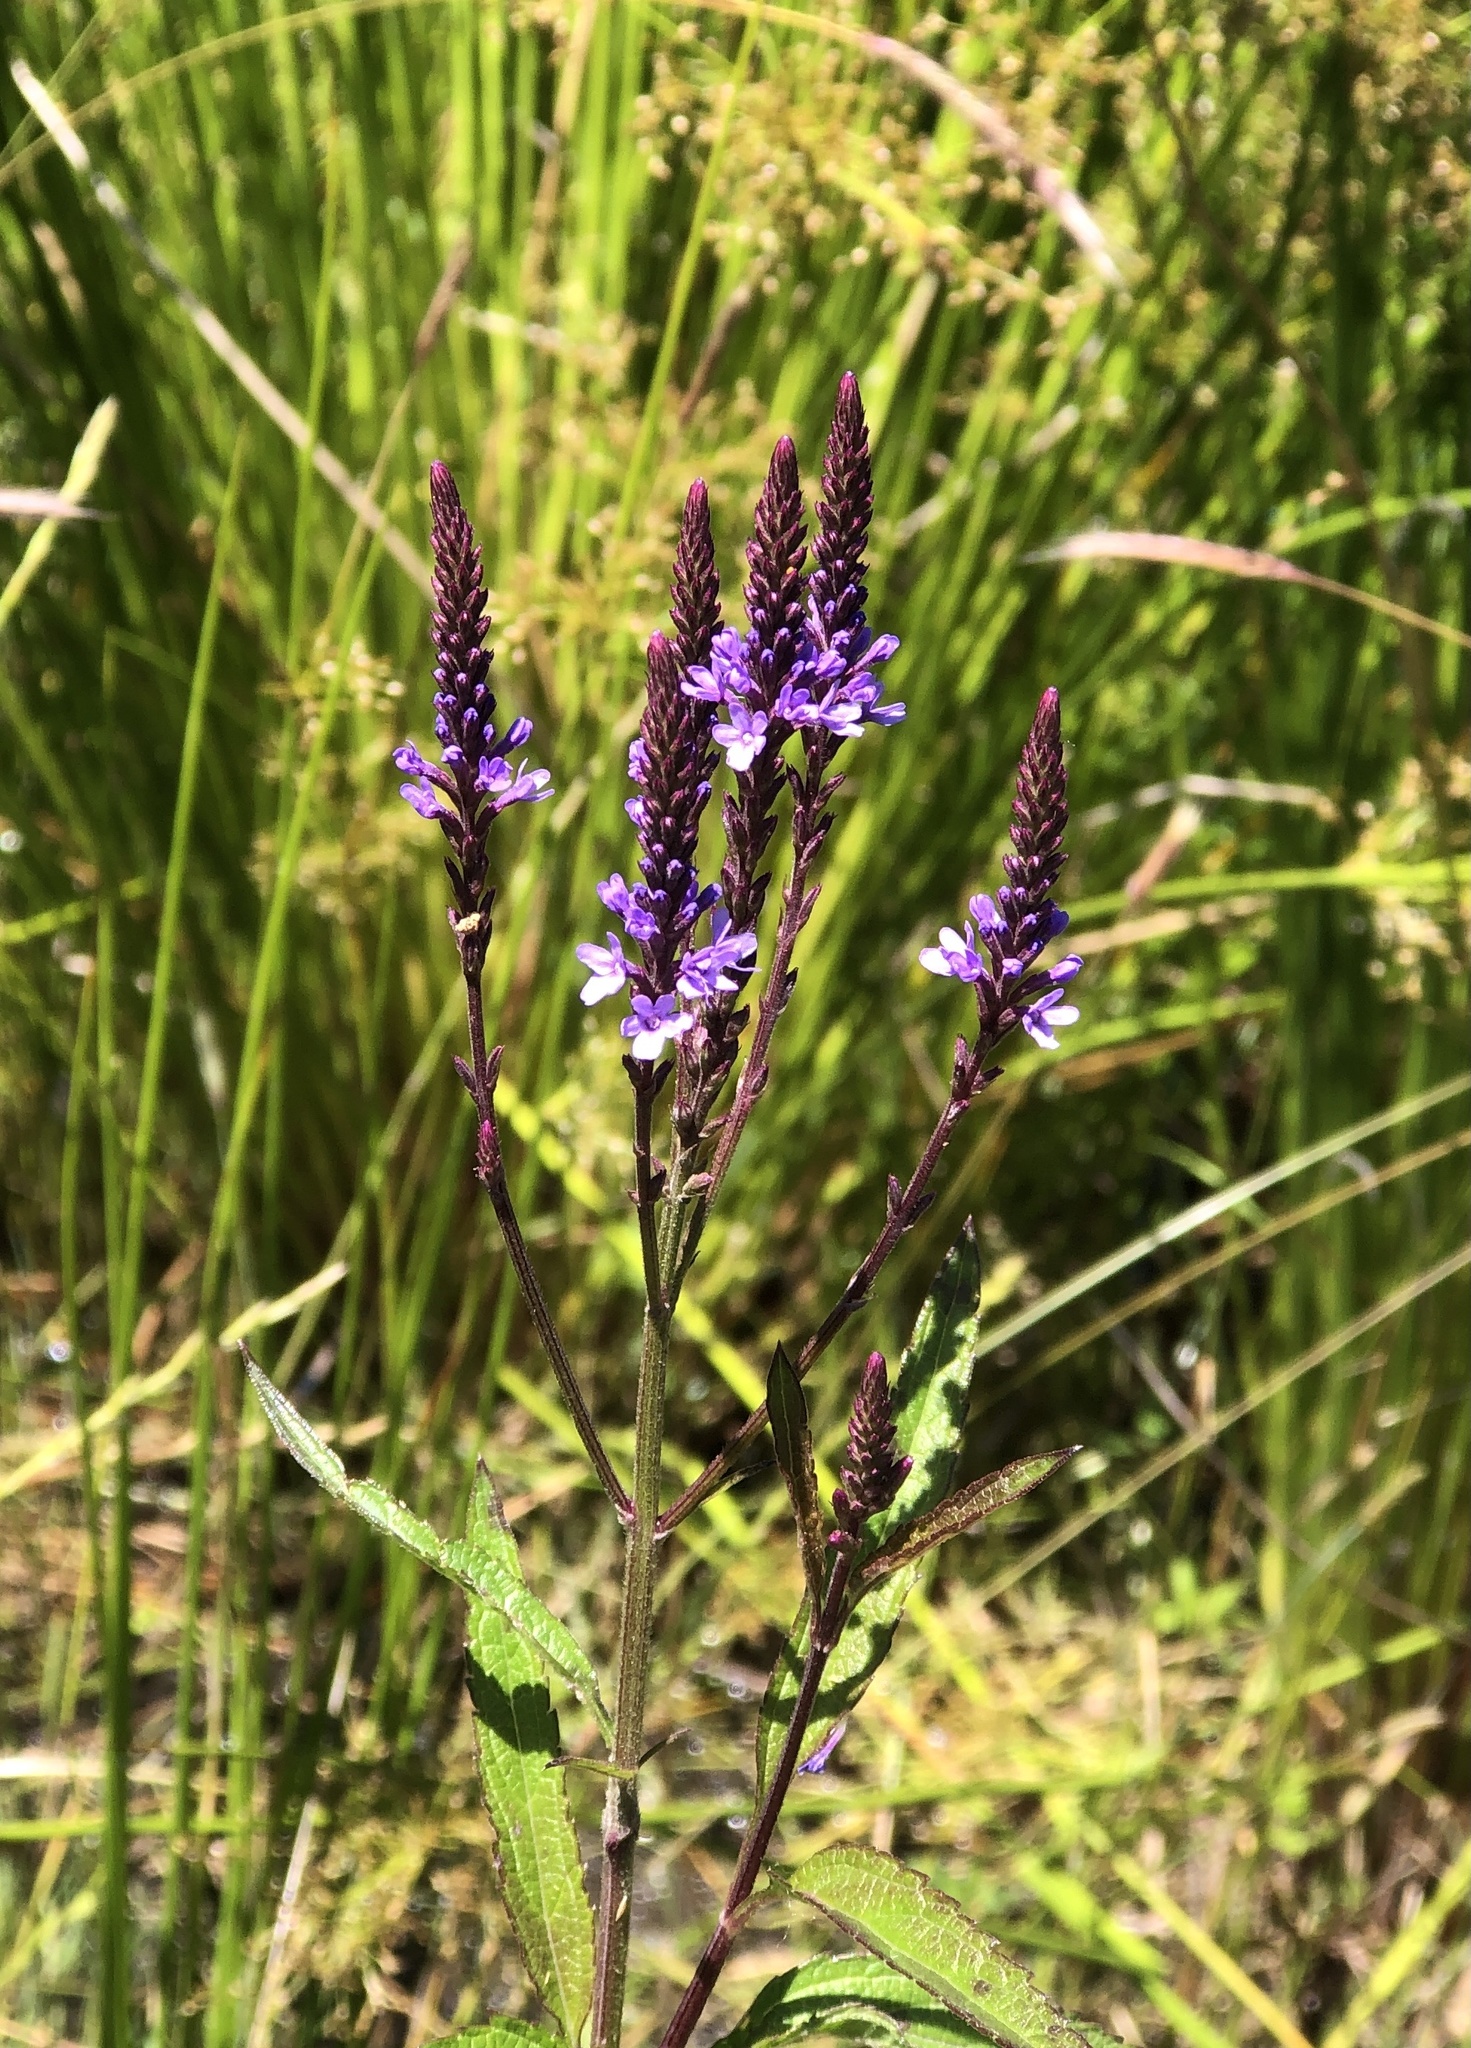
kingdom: Plantae
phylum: Tracheophyta
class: Magnoliopsida
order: Lamiales
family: Verbenaceae
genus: Verbena
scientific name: Verbena hastata
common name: American blue vervain
